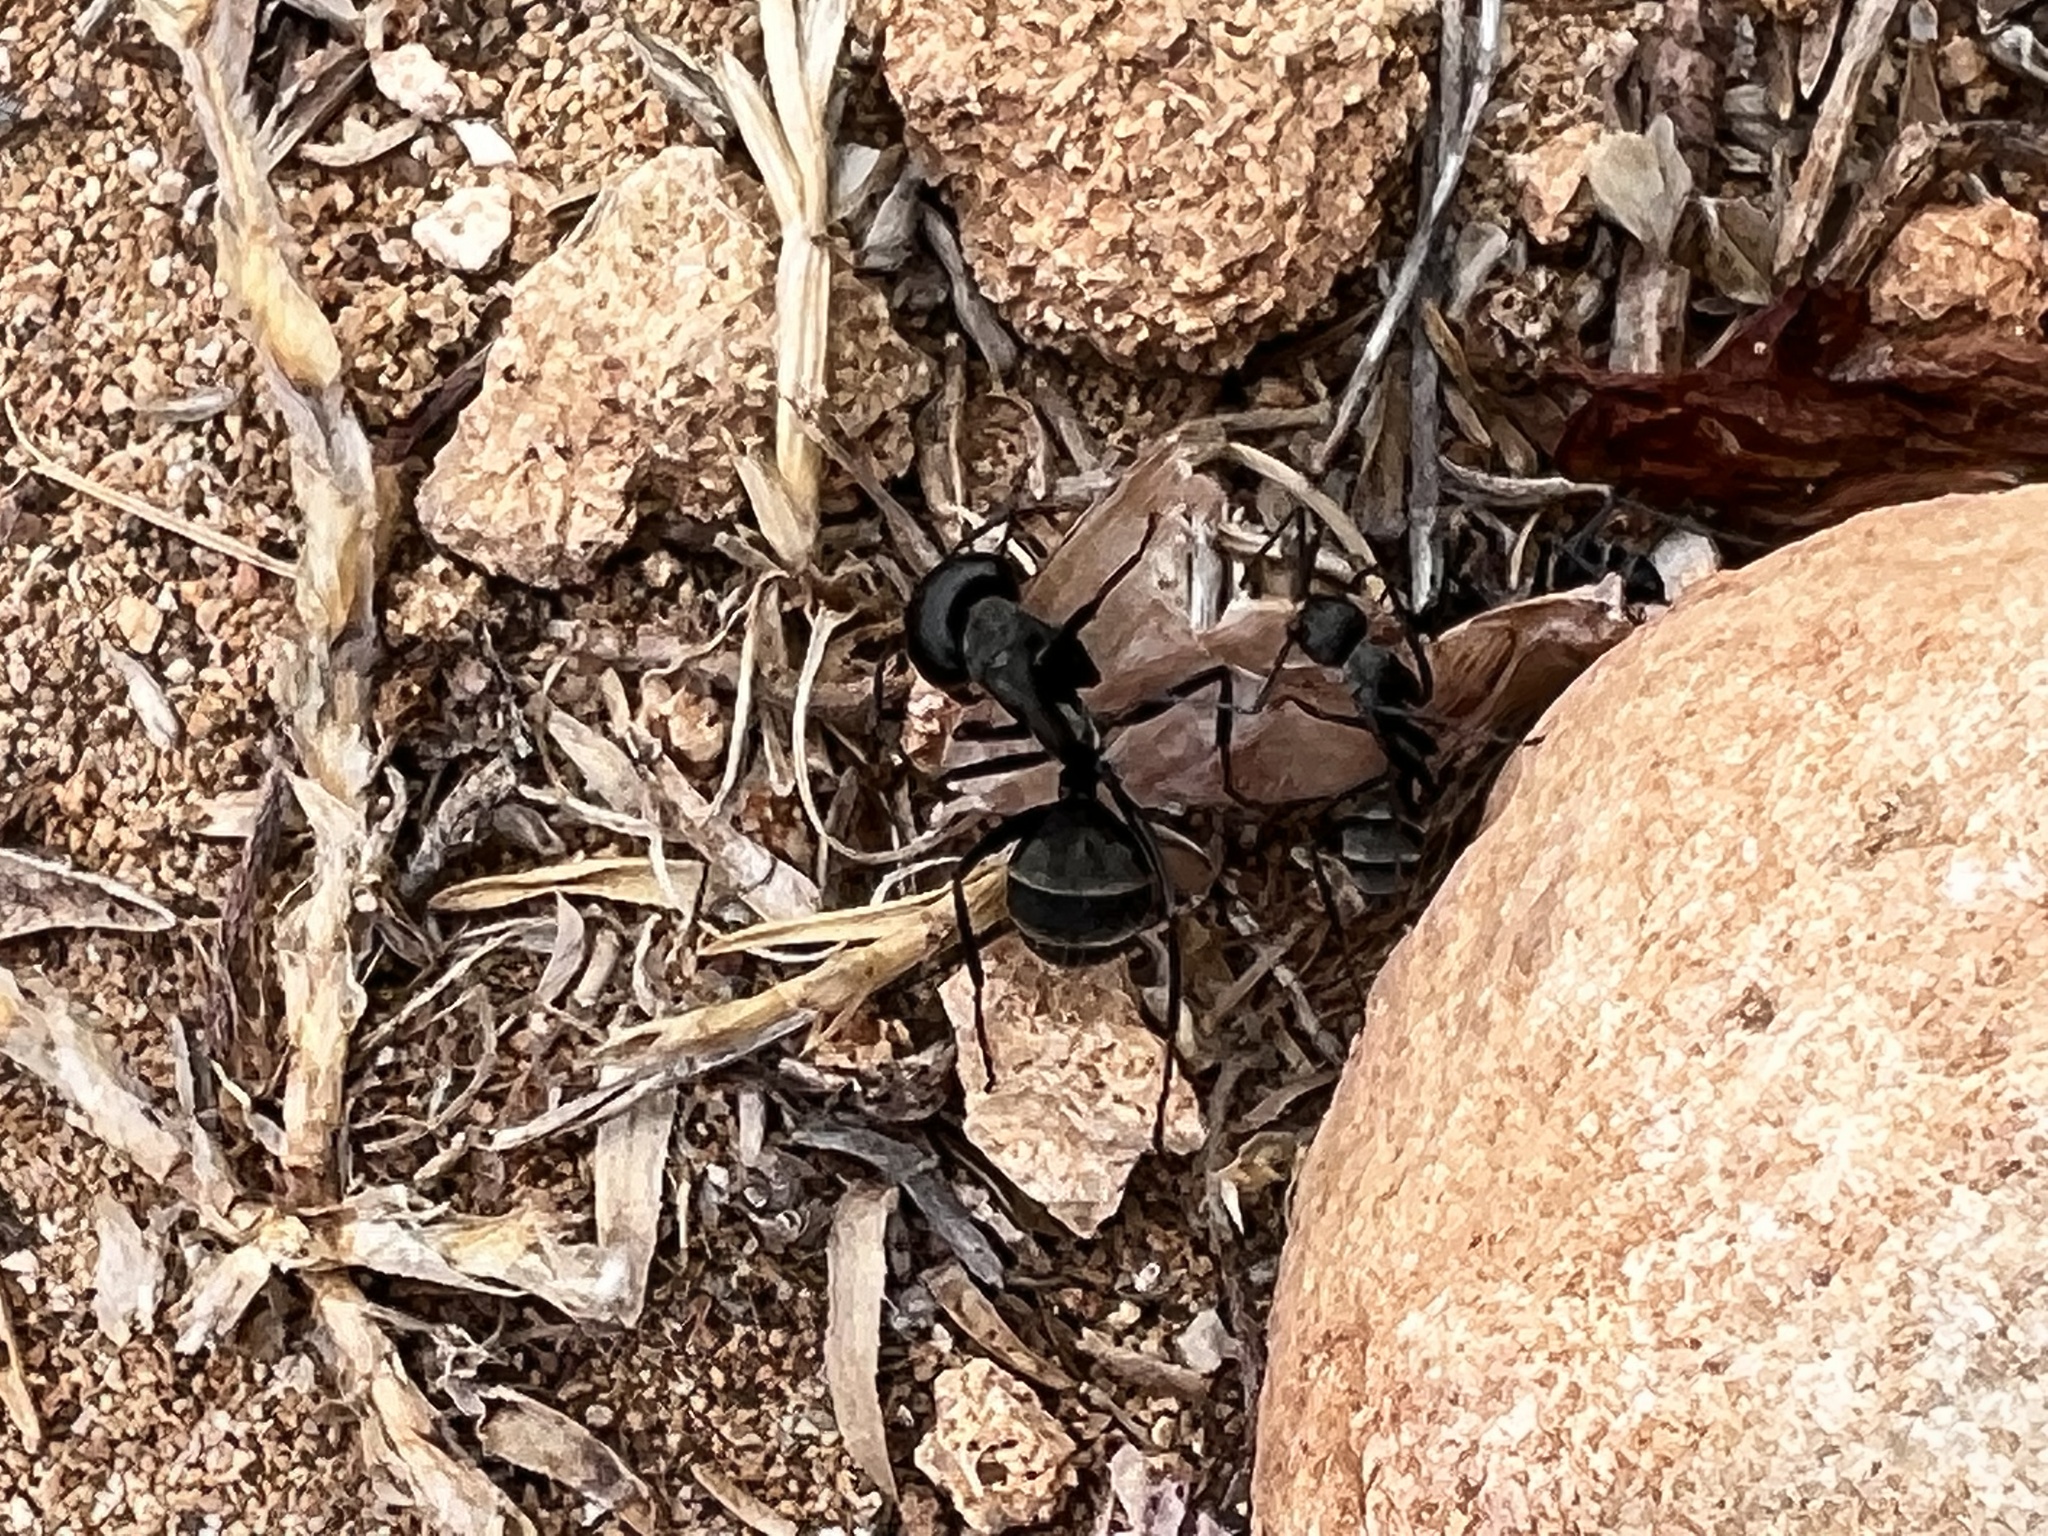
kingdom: Animalia
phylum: Arthropoda
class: Insecta
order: Hymenoptera
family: Formicidae
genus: Camponotus
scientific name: Camponotus micans
